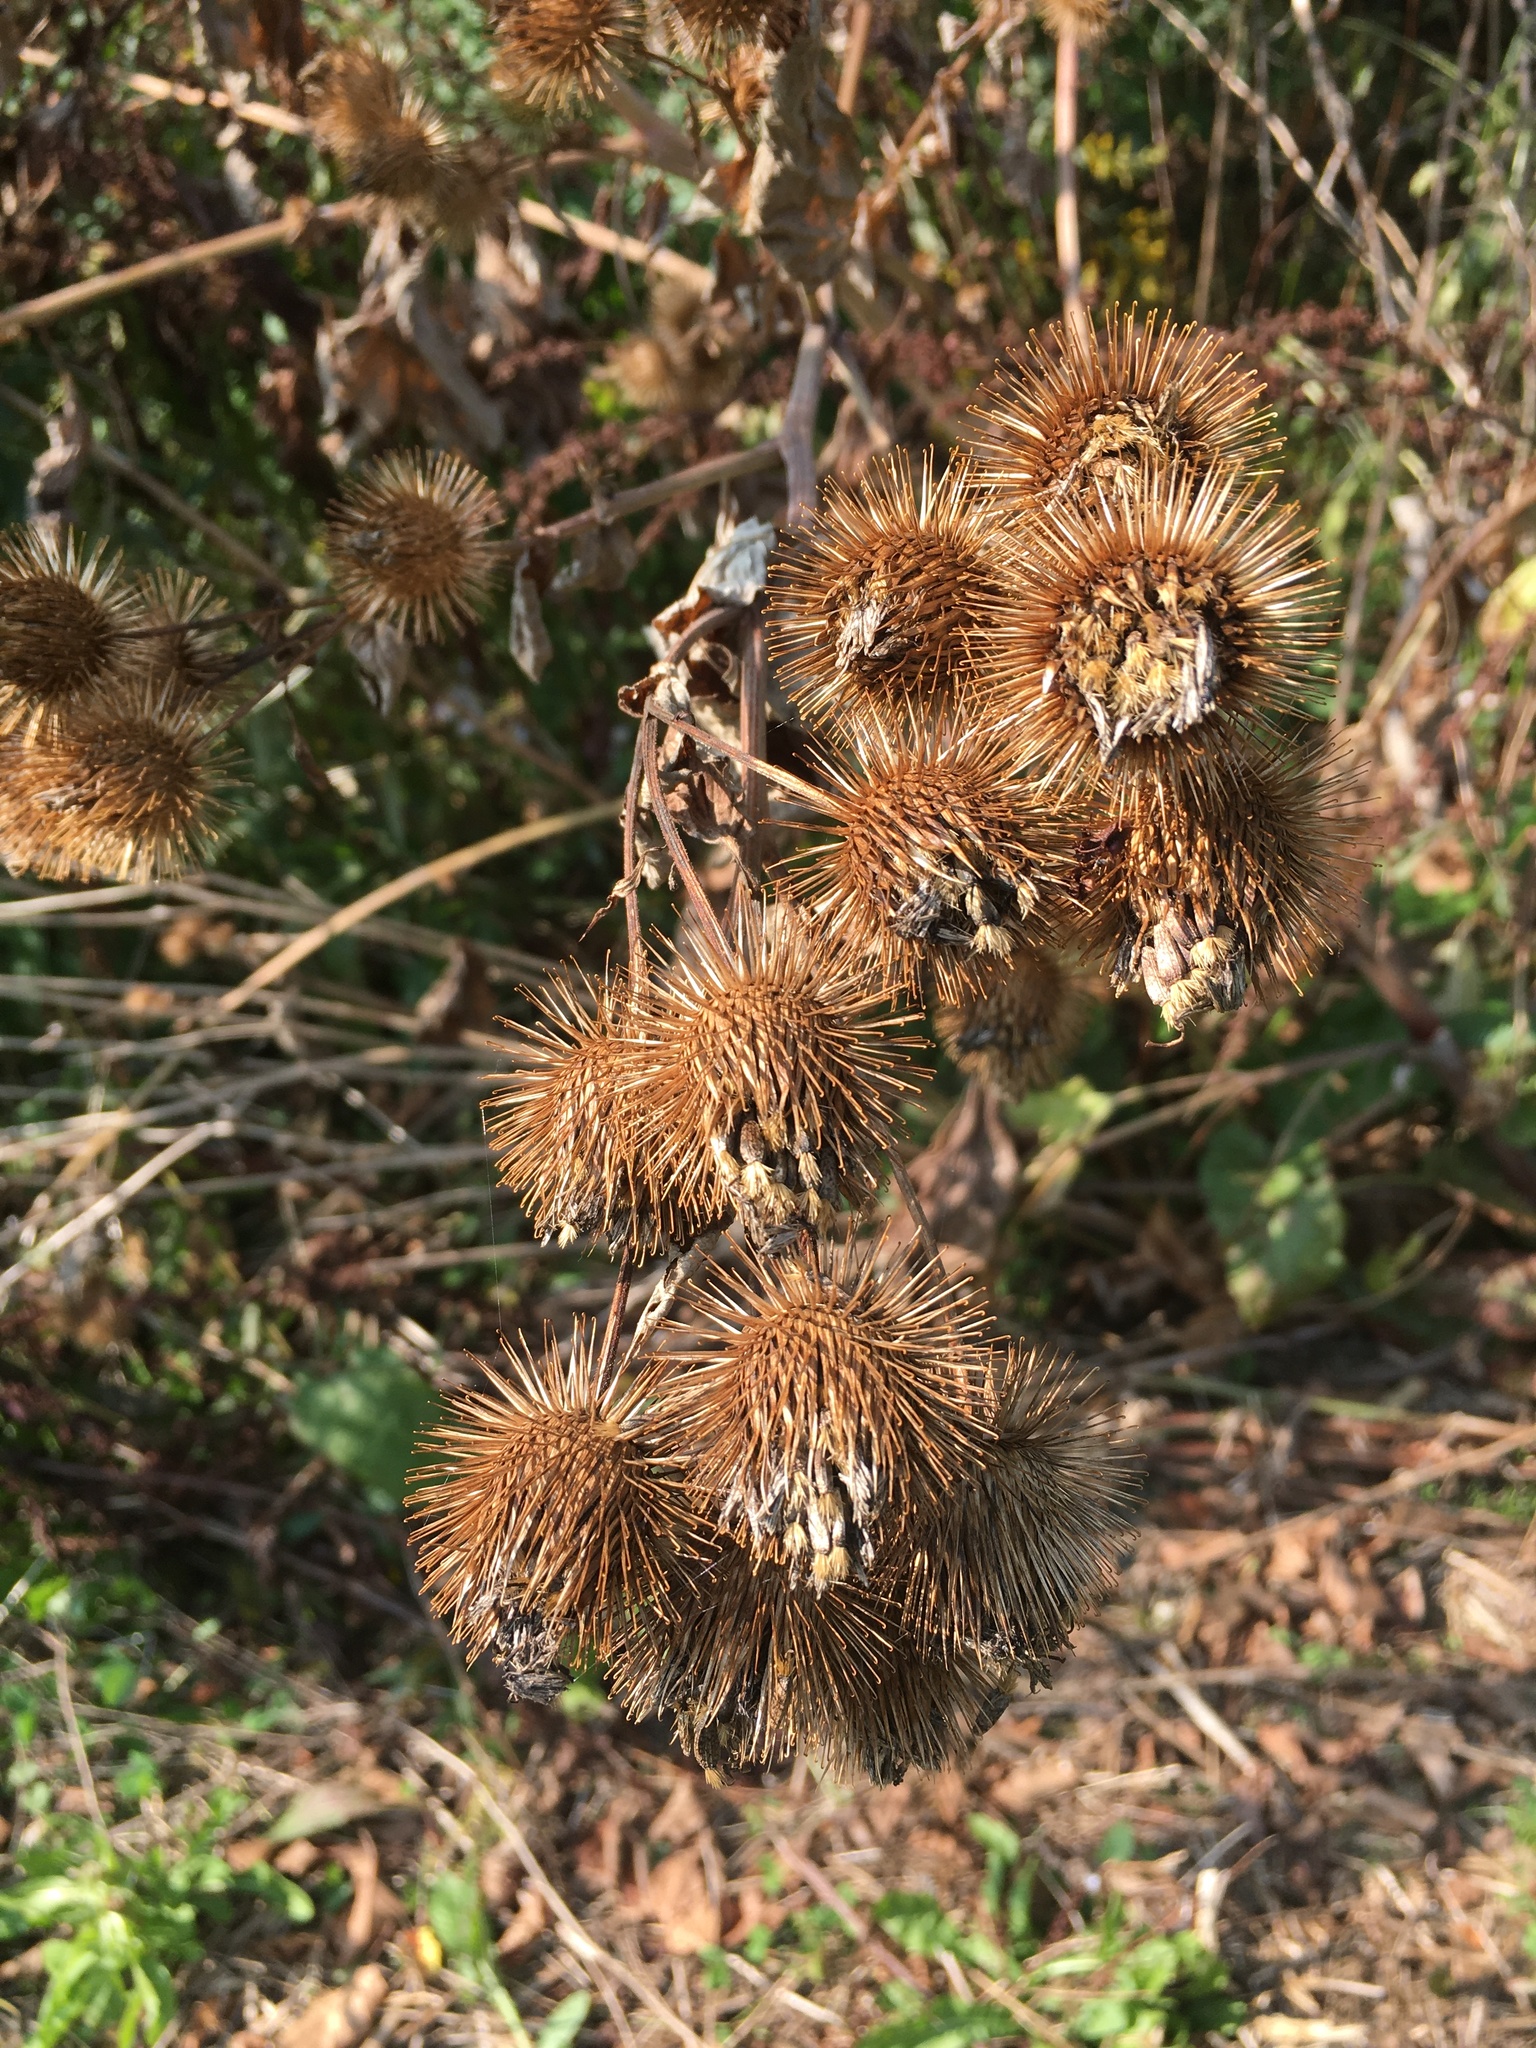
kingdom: Plantae
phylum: Tracheophyta
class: Magnoliopsida
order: Asterales
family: Asteraceae
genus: Arctium
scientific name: Arctium lappa
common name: Greater burdock
